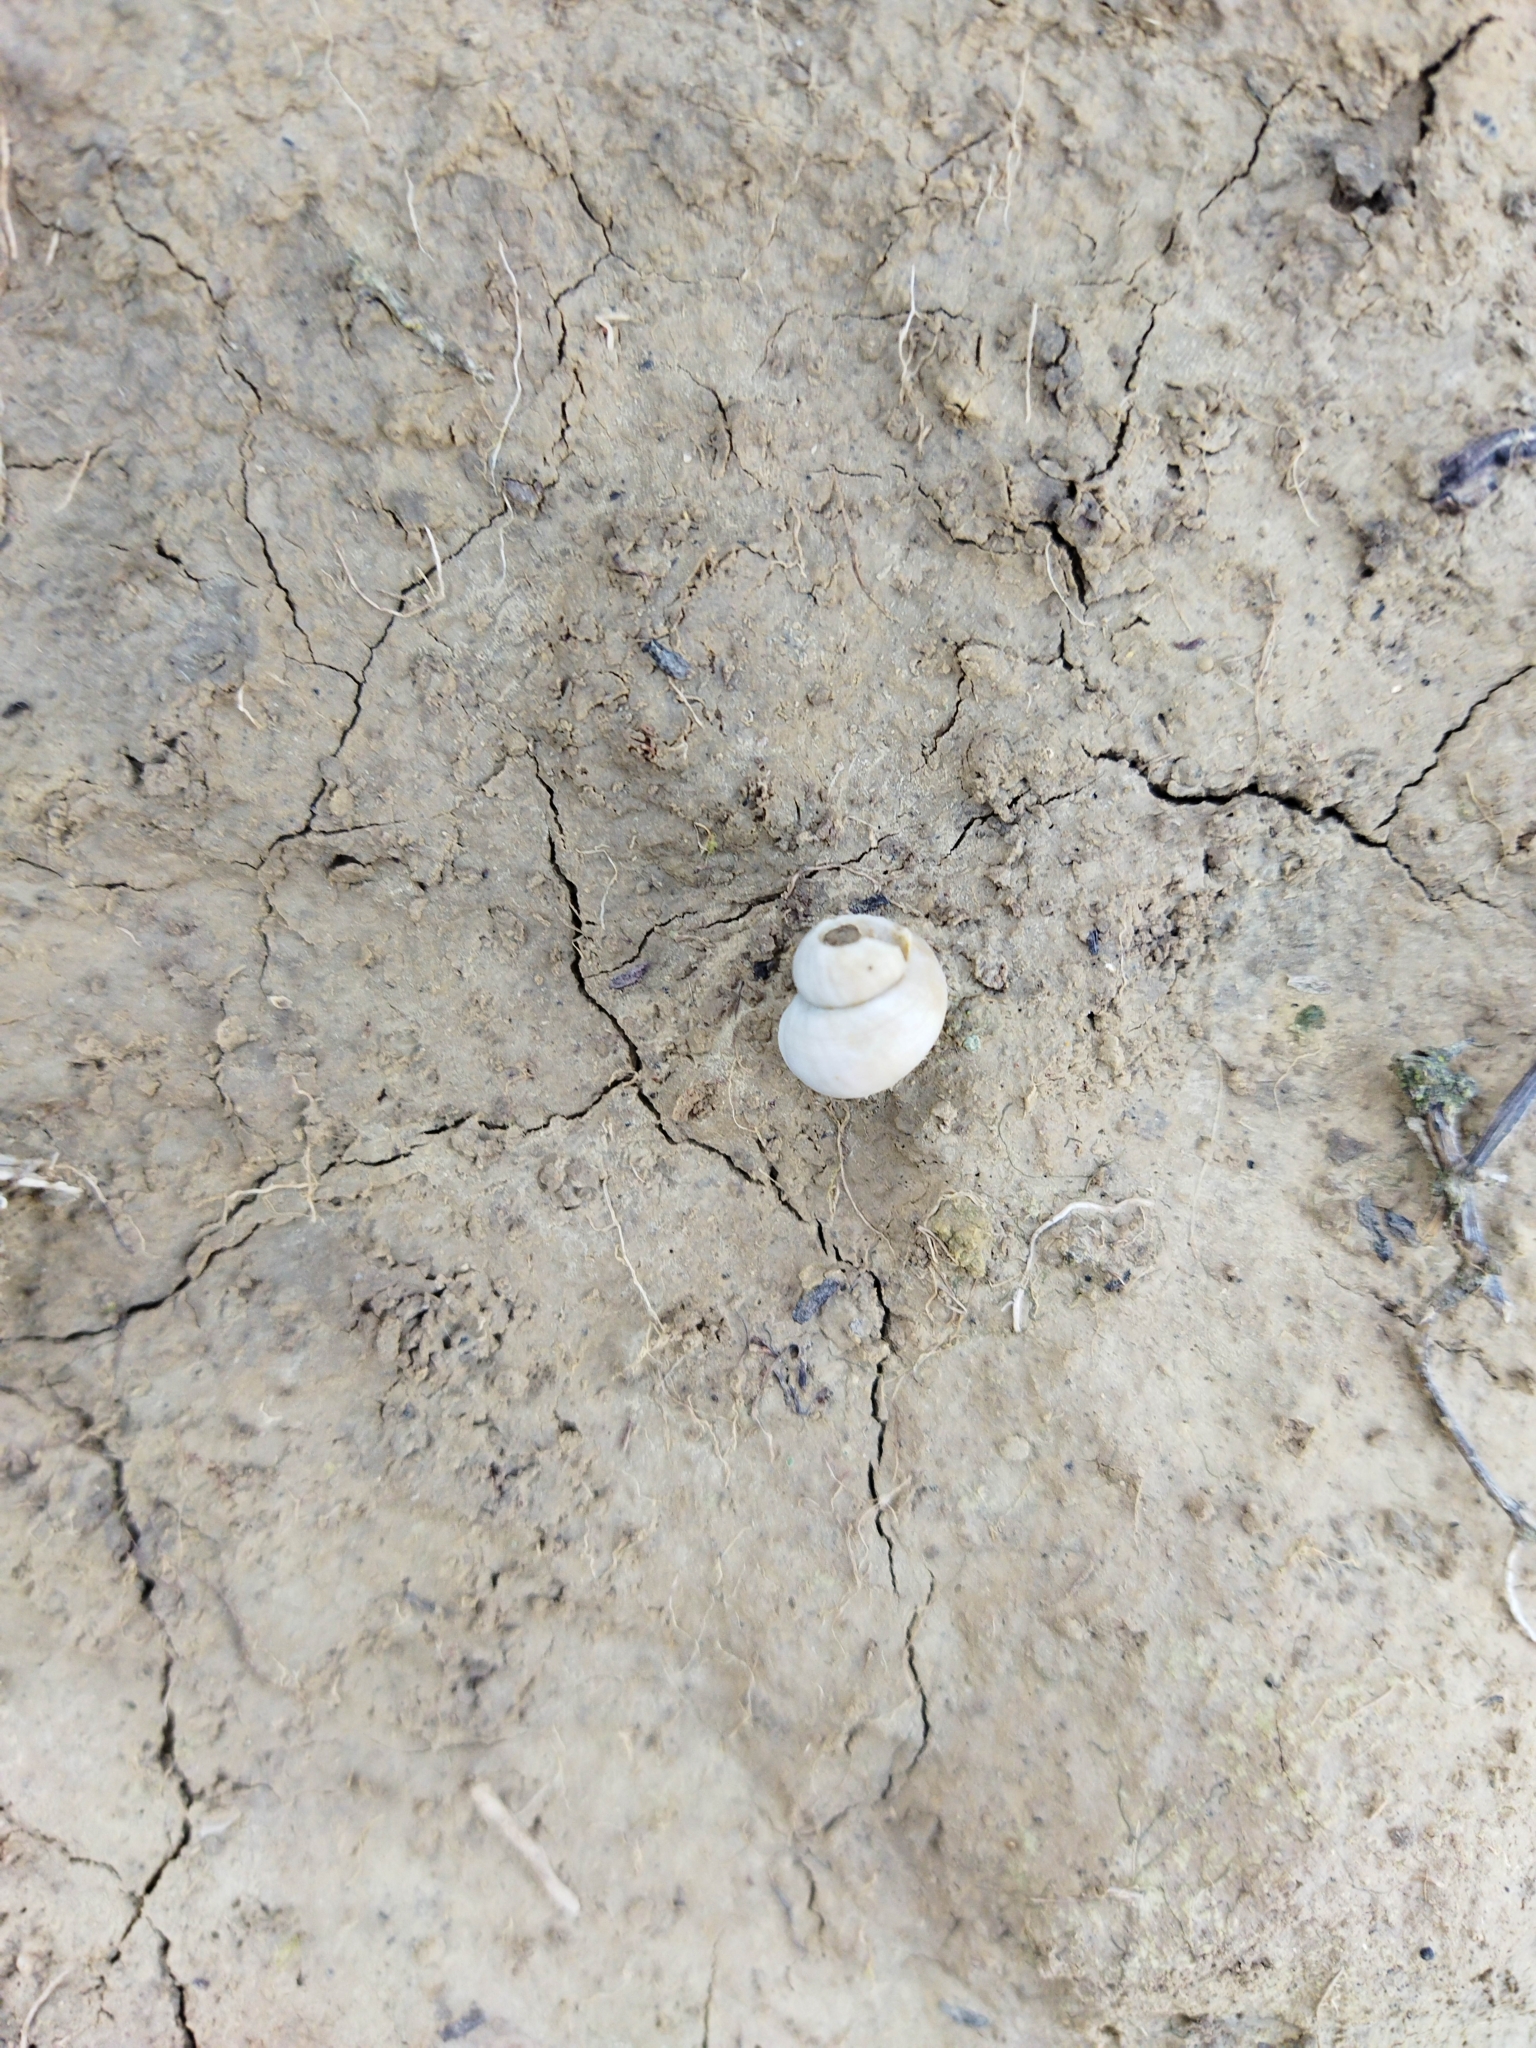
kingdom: Animalia
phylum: Mollusca
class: Gastropoda
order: Littorinimorpha
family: Pomatiidae
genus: Pomatias
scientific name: Pomatias elegans
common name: Red-mouthed snail
